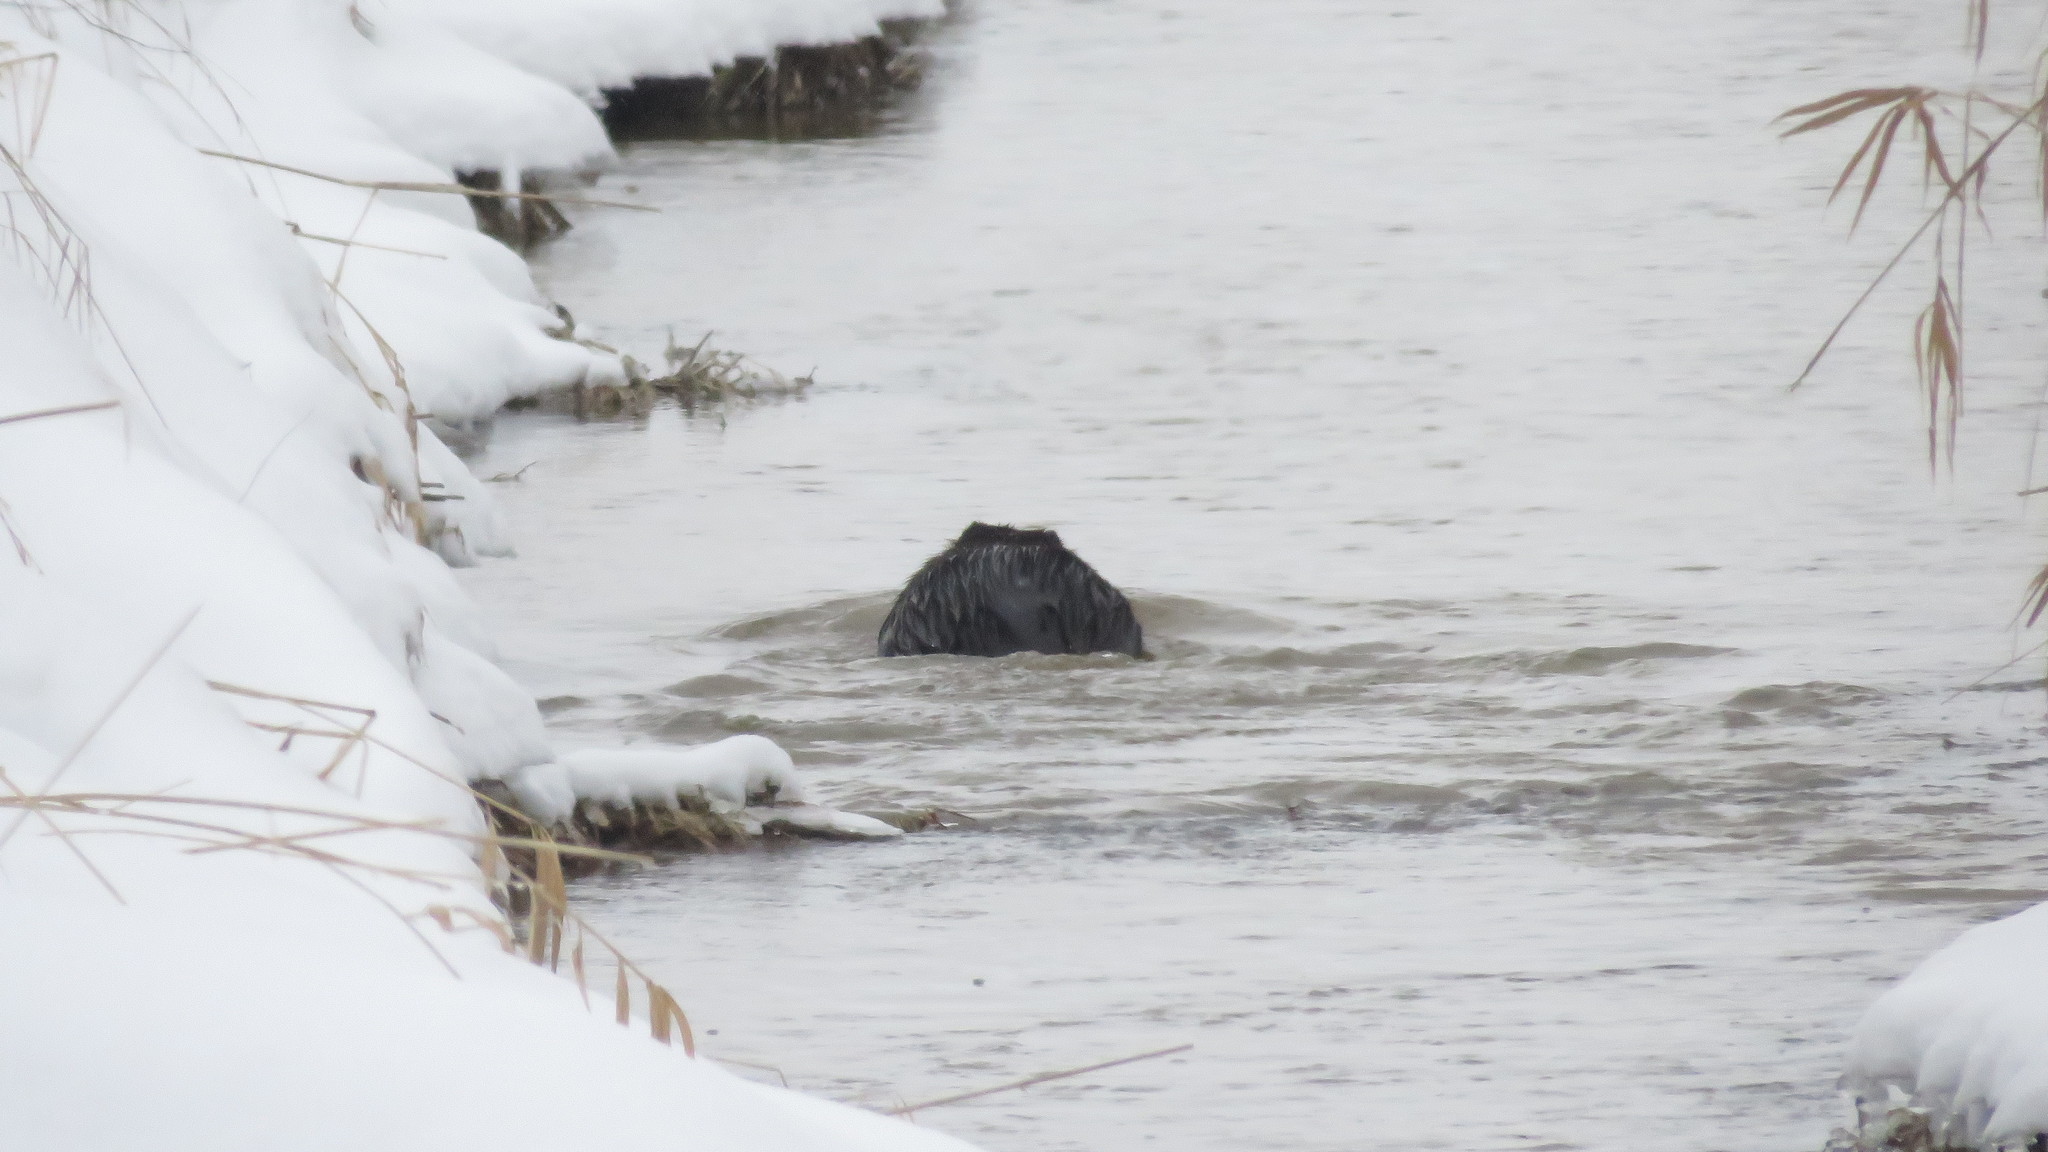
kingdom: Animalia
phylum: Chordata
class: Mammalia
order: Rodentia
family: Castoridae
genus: Castor
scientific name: Castor canadensis
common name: American beaver
